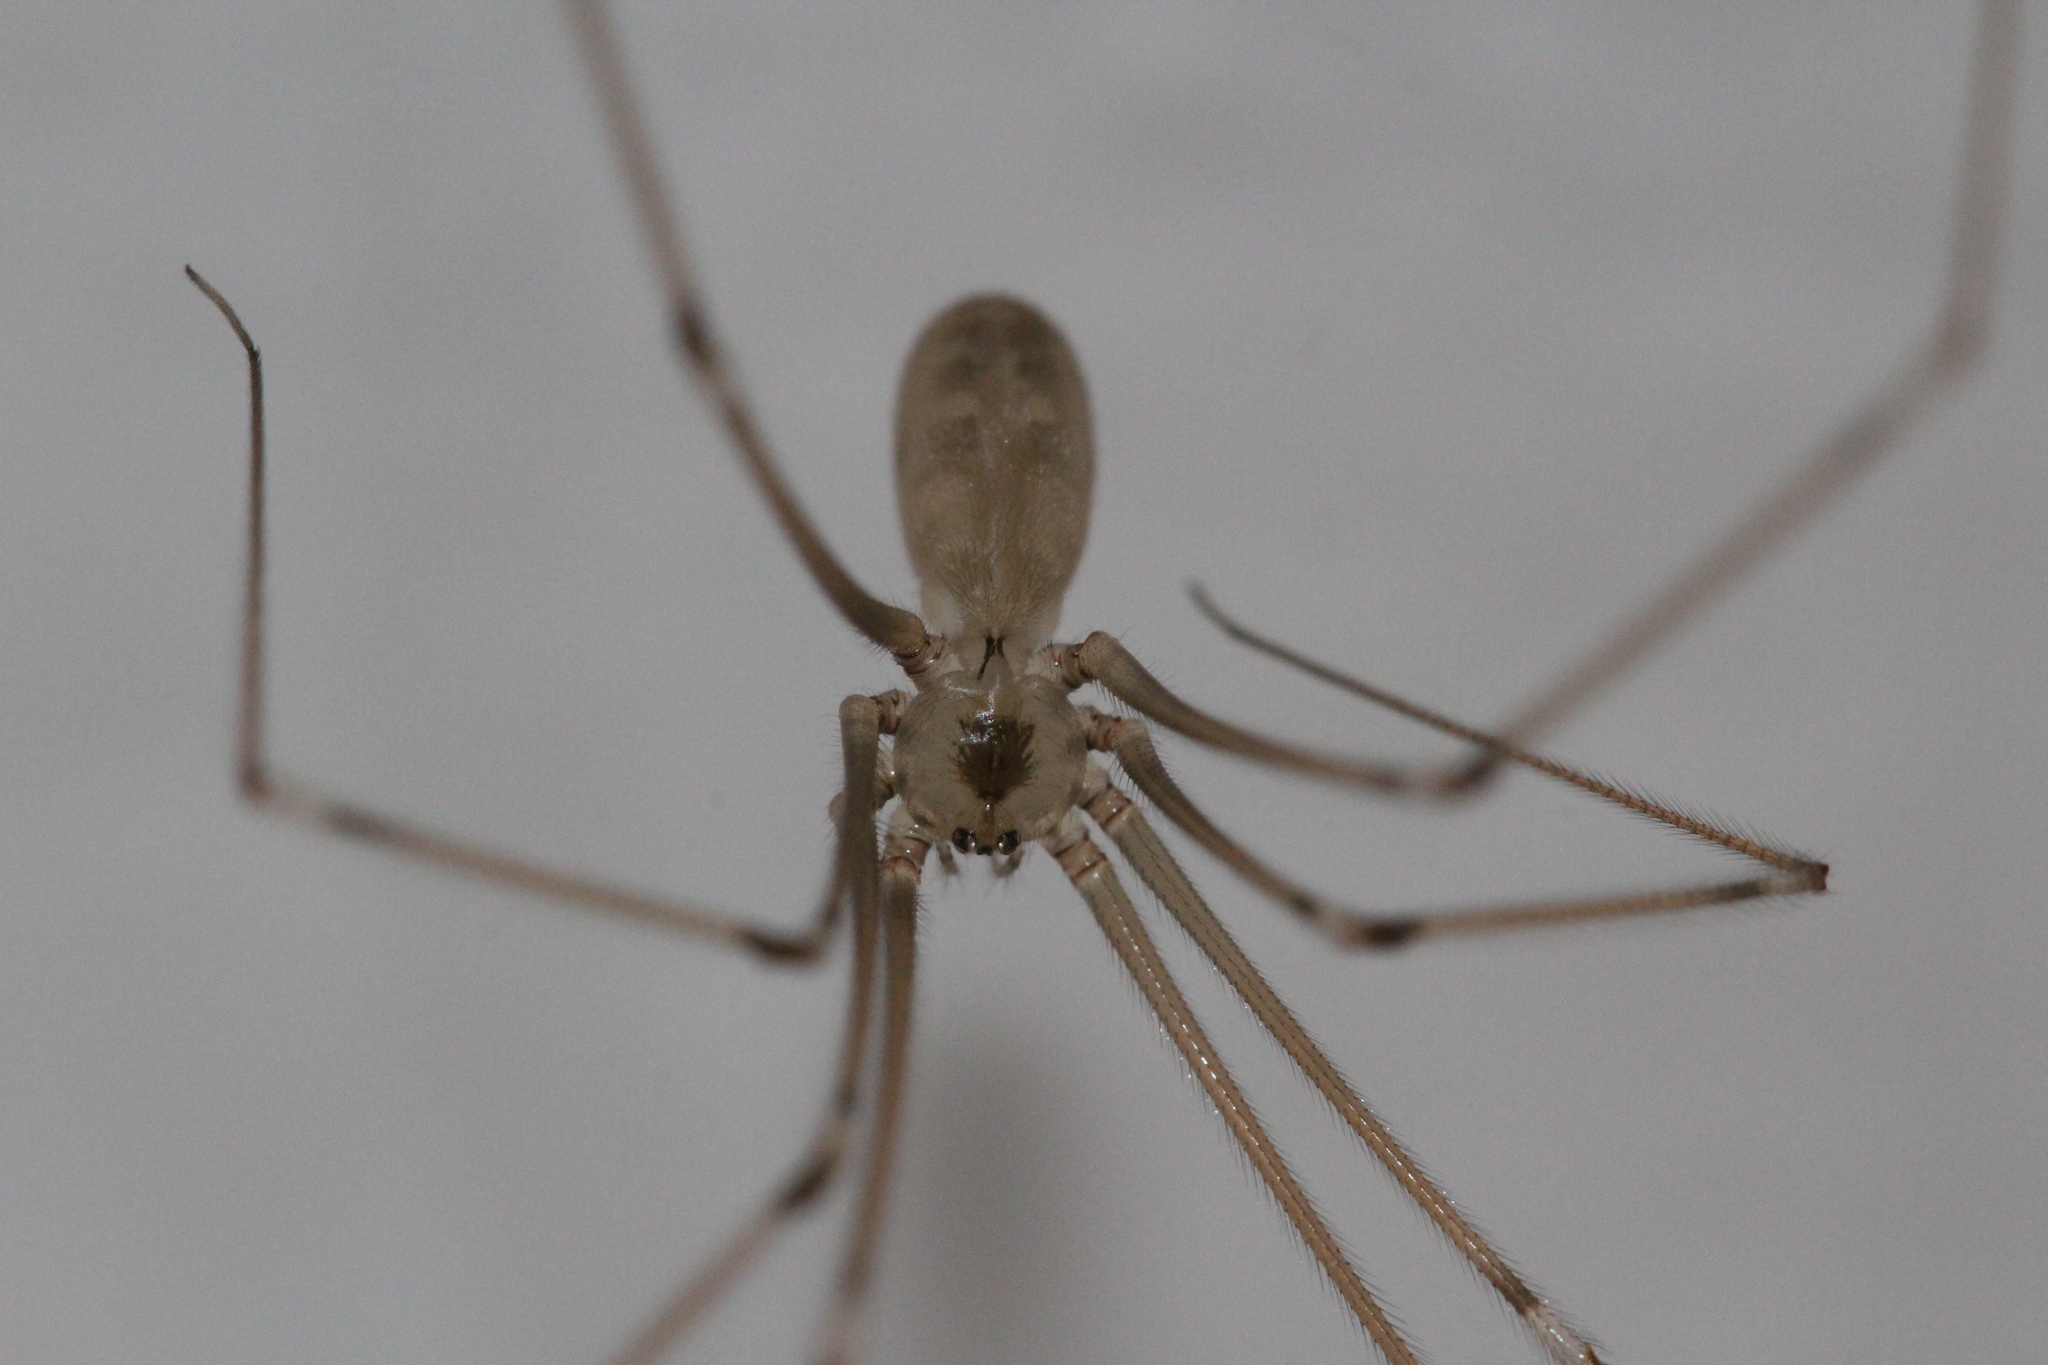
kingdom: Animalia
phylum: Arthropoda
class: Arachnida
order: Araneae
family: Pholcidae
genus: Pholcus
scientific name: Pholcus phalangioides
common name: Longbodied cellar spider
